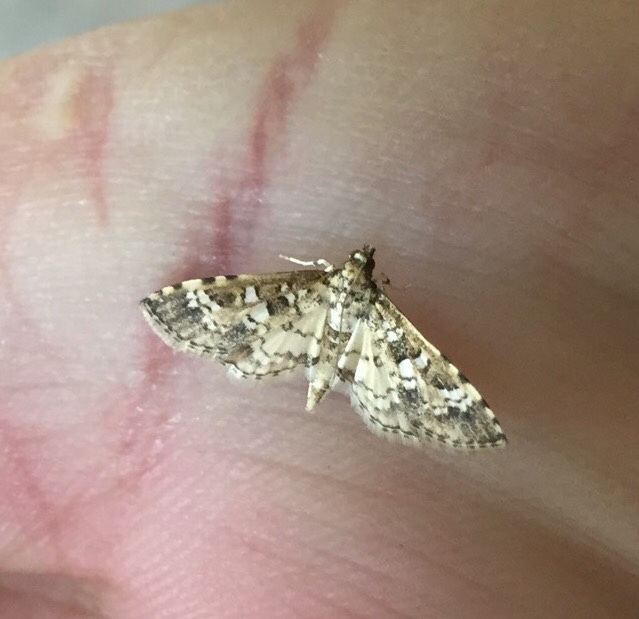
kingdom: Animalia
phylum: Arthropoda
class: Insecta
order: Lepidoptera
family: Crambidae
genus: Samea
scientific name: Samea multiplicalis
